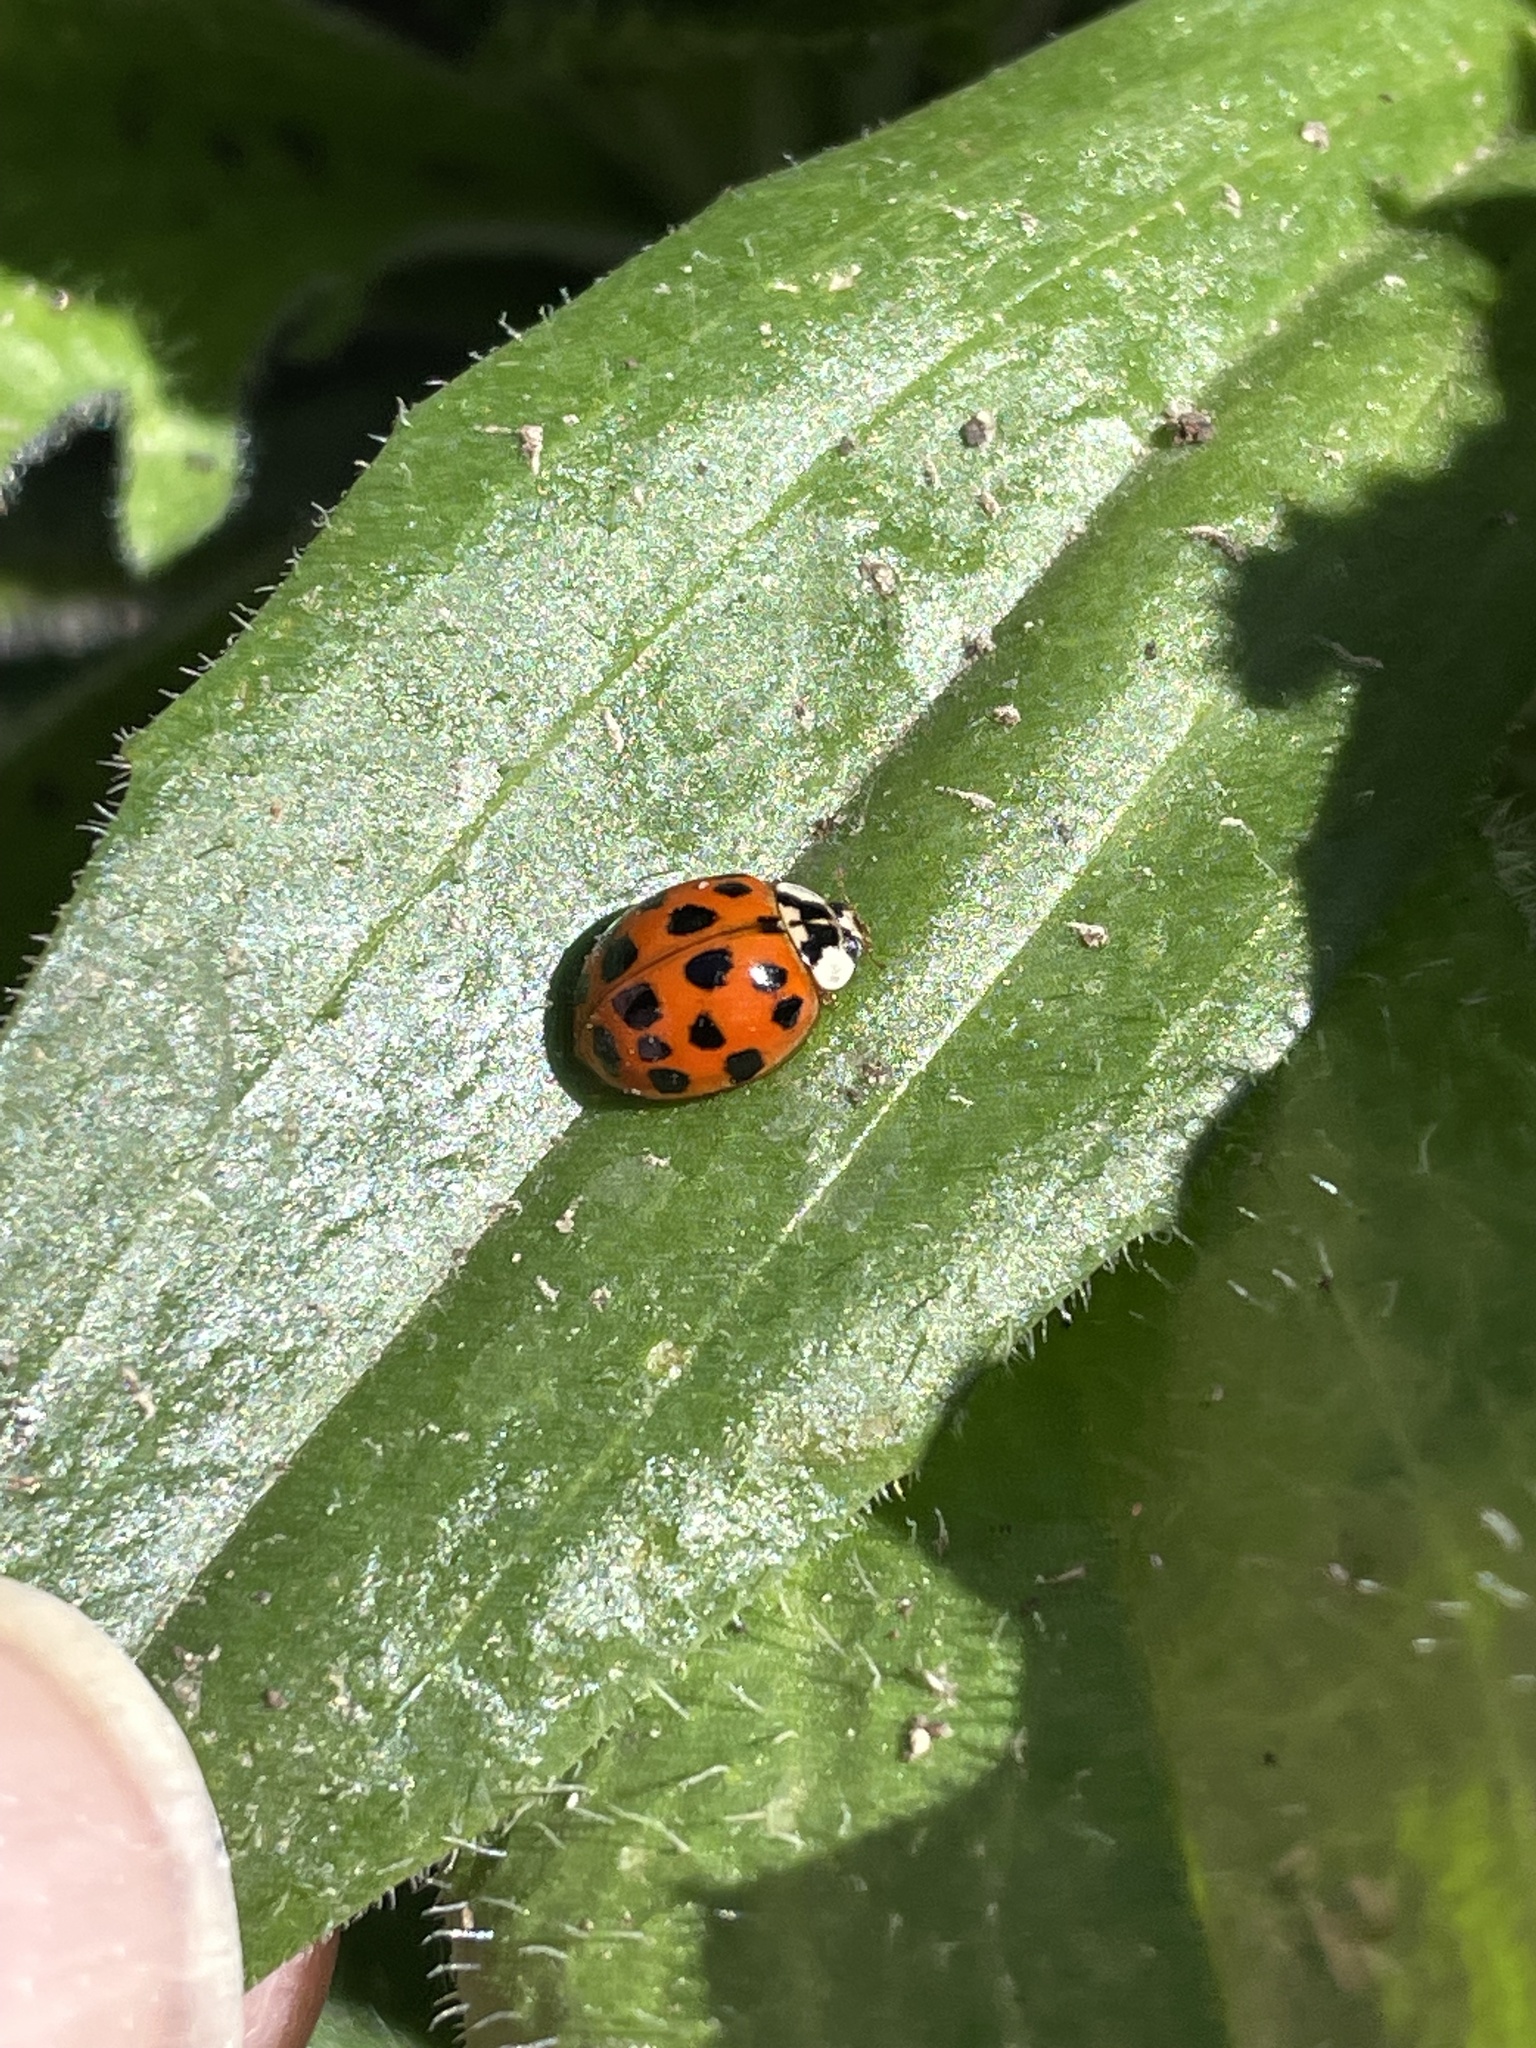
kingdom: Animalia
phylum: Arthropoda
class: Insecta
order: Coleoptera
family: Coccinellidae
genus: Harmonia
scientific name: Harmonia axyridis
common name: Harlequin ladybird
